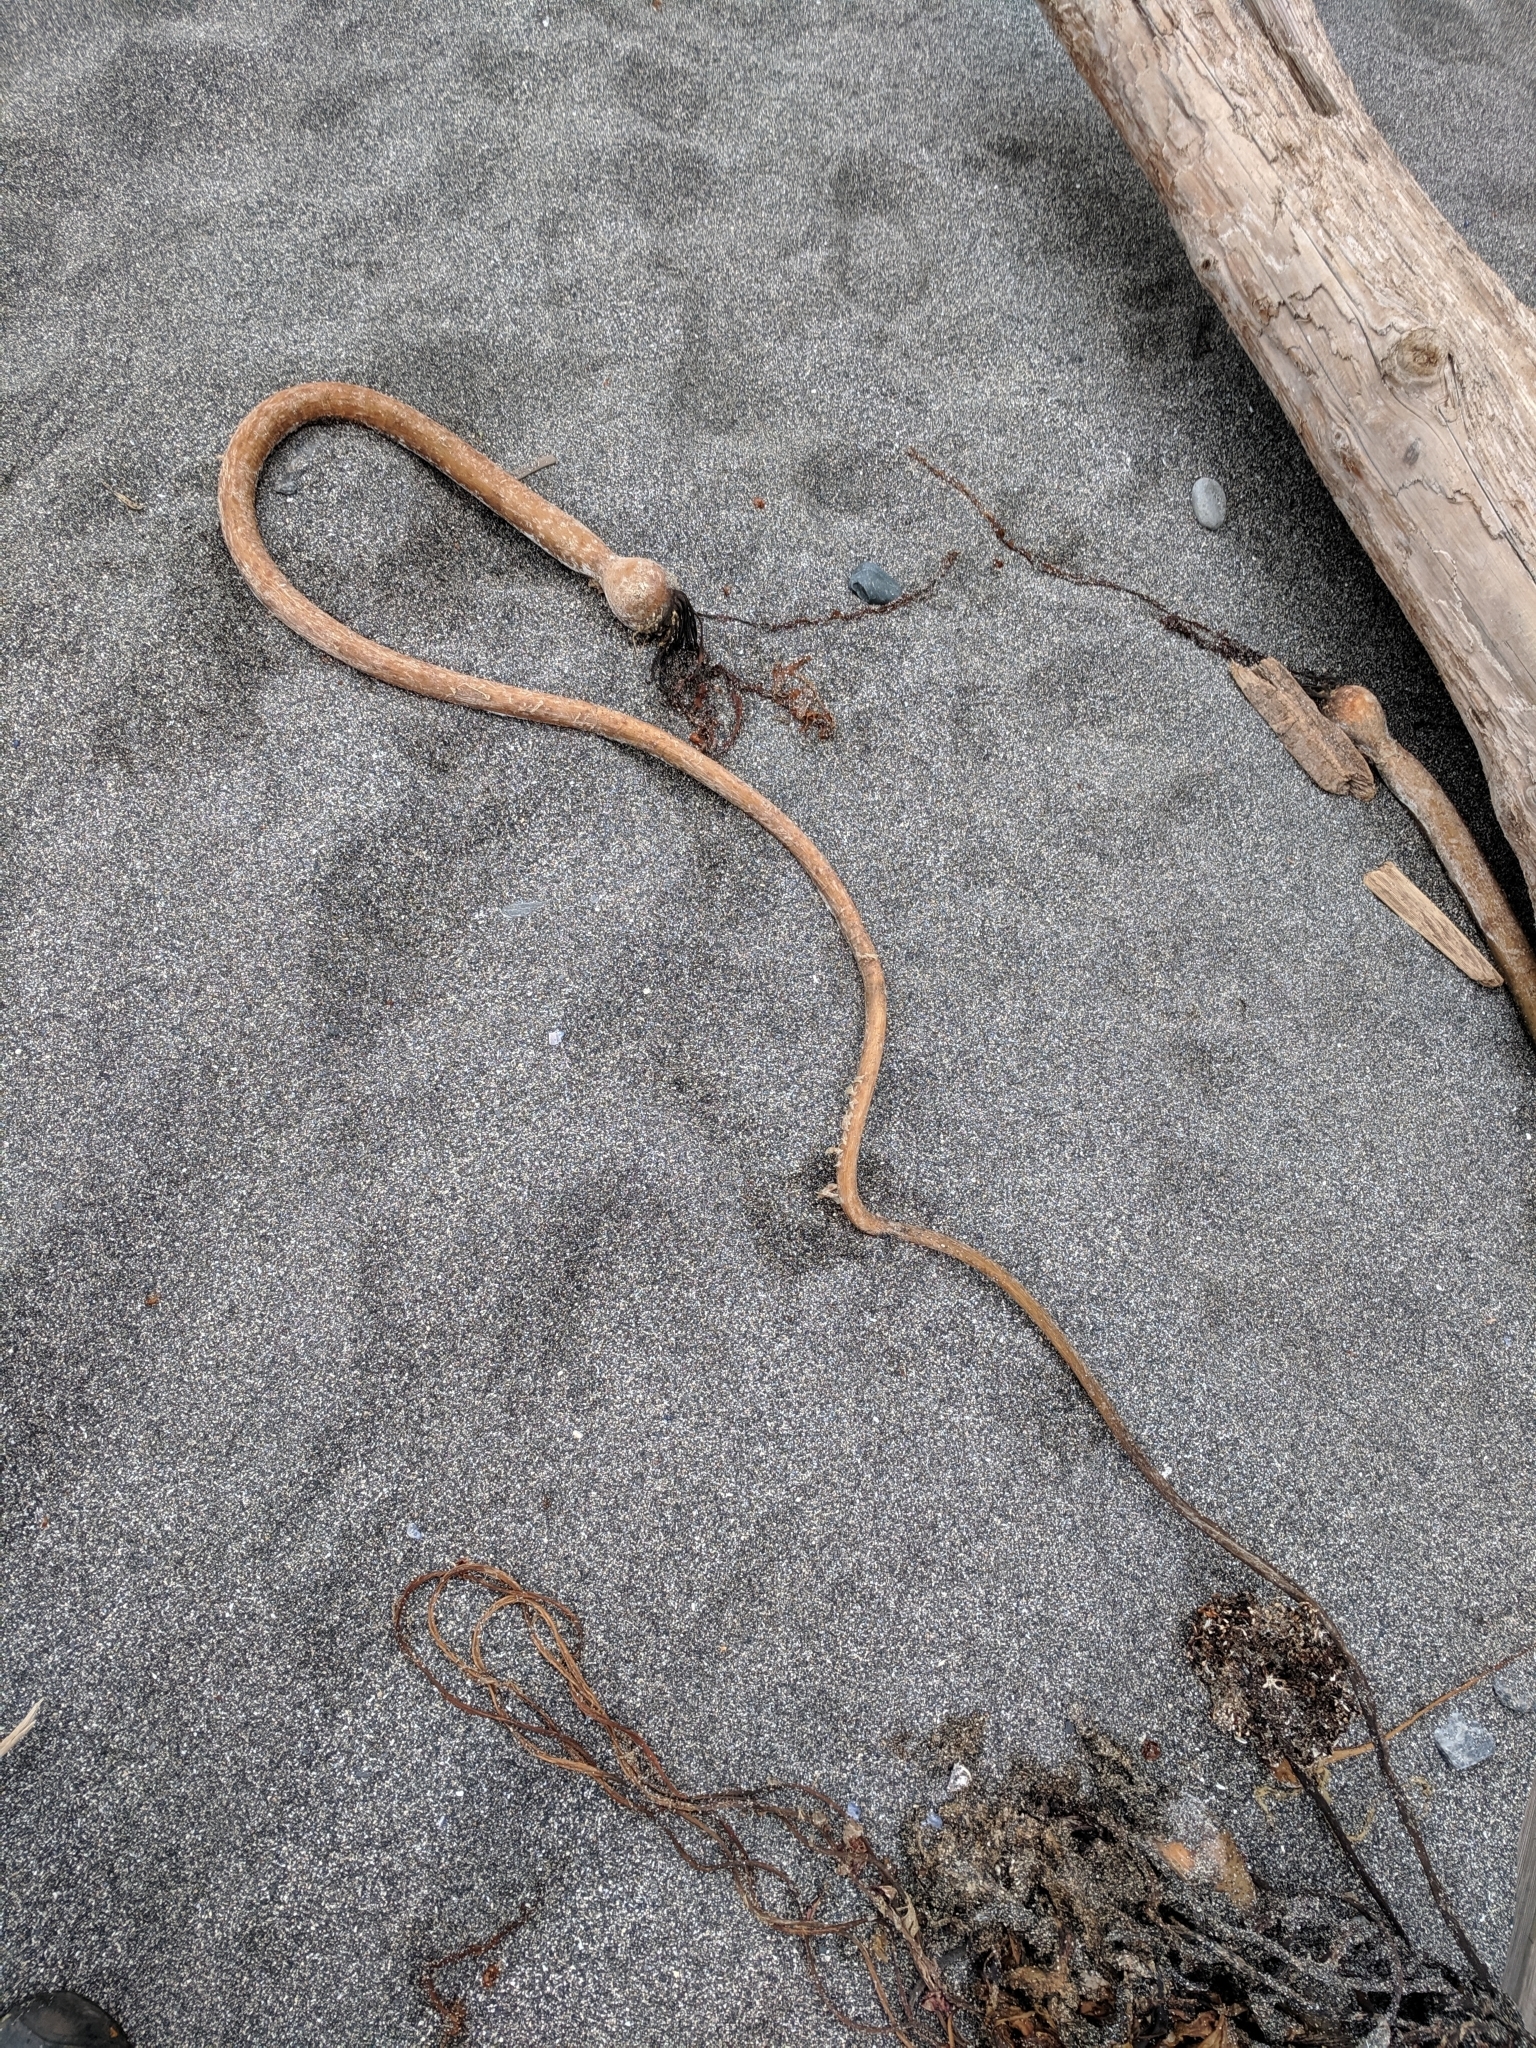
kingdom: Chromista
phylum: Ochrophyta
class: Phaeophyceae
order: Laminariales
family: Laminariaceae
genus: Nereocystis
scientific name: Nereocystis luetkeana
